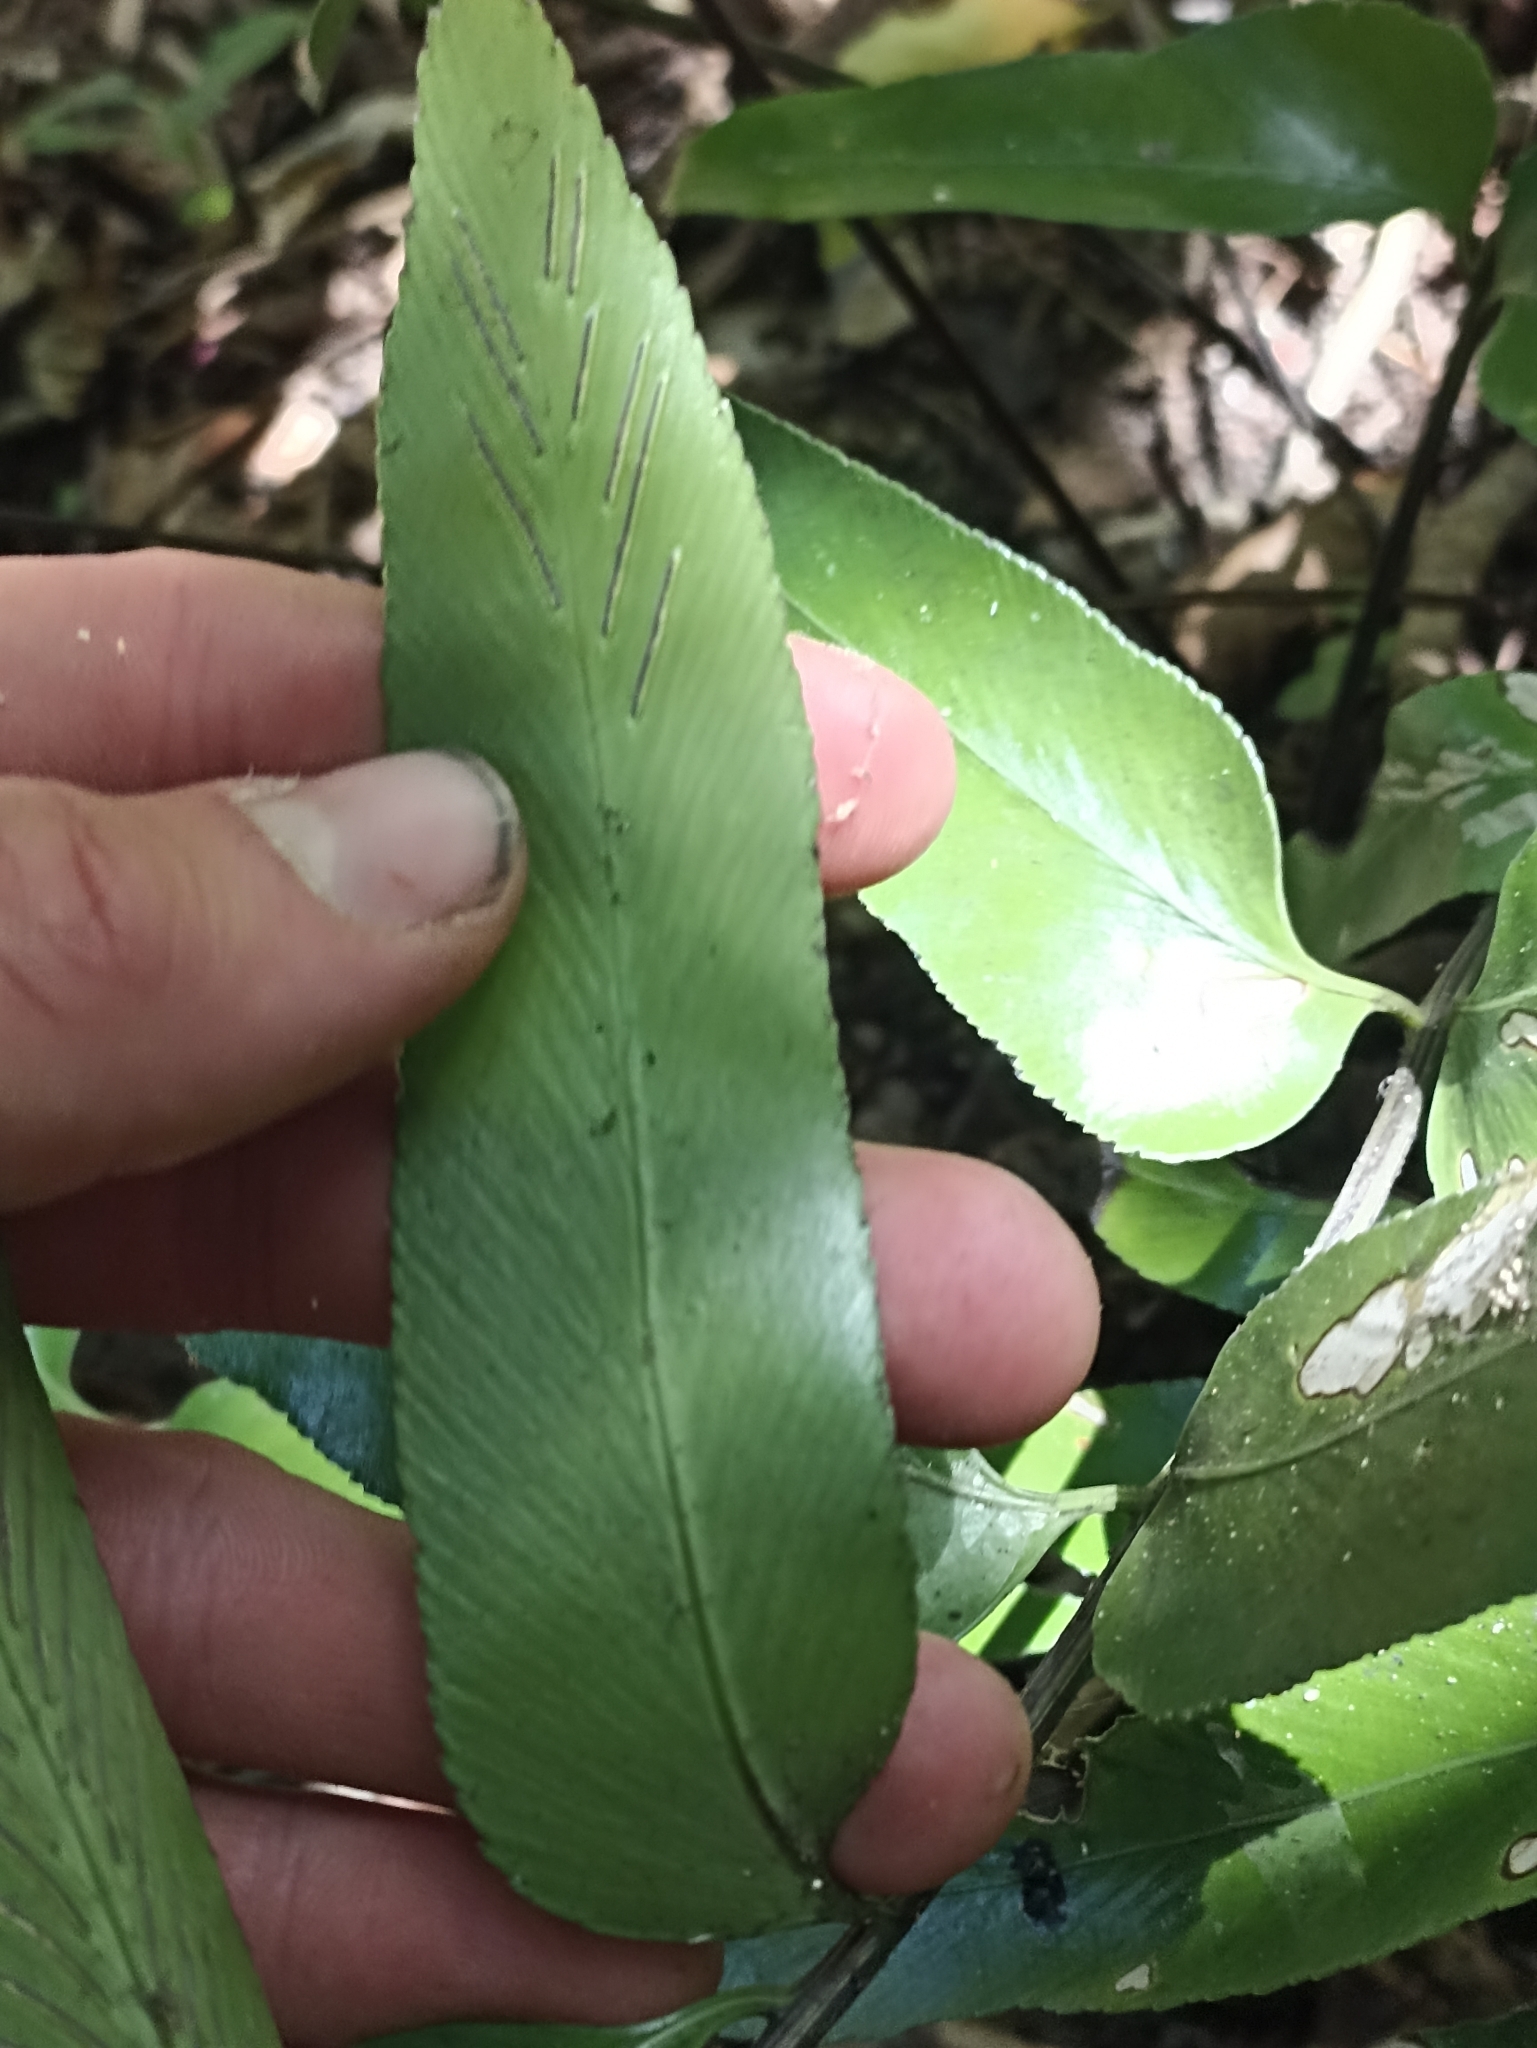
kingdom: Plantae
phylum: Tracheophyta
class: Polypodiopsida
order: Polypodiales
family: Aspleniaceae
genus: Asplenium
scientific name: Asplenium oblongifolium
